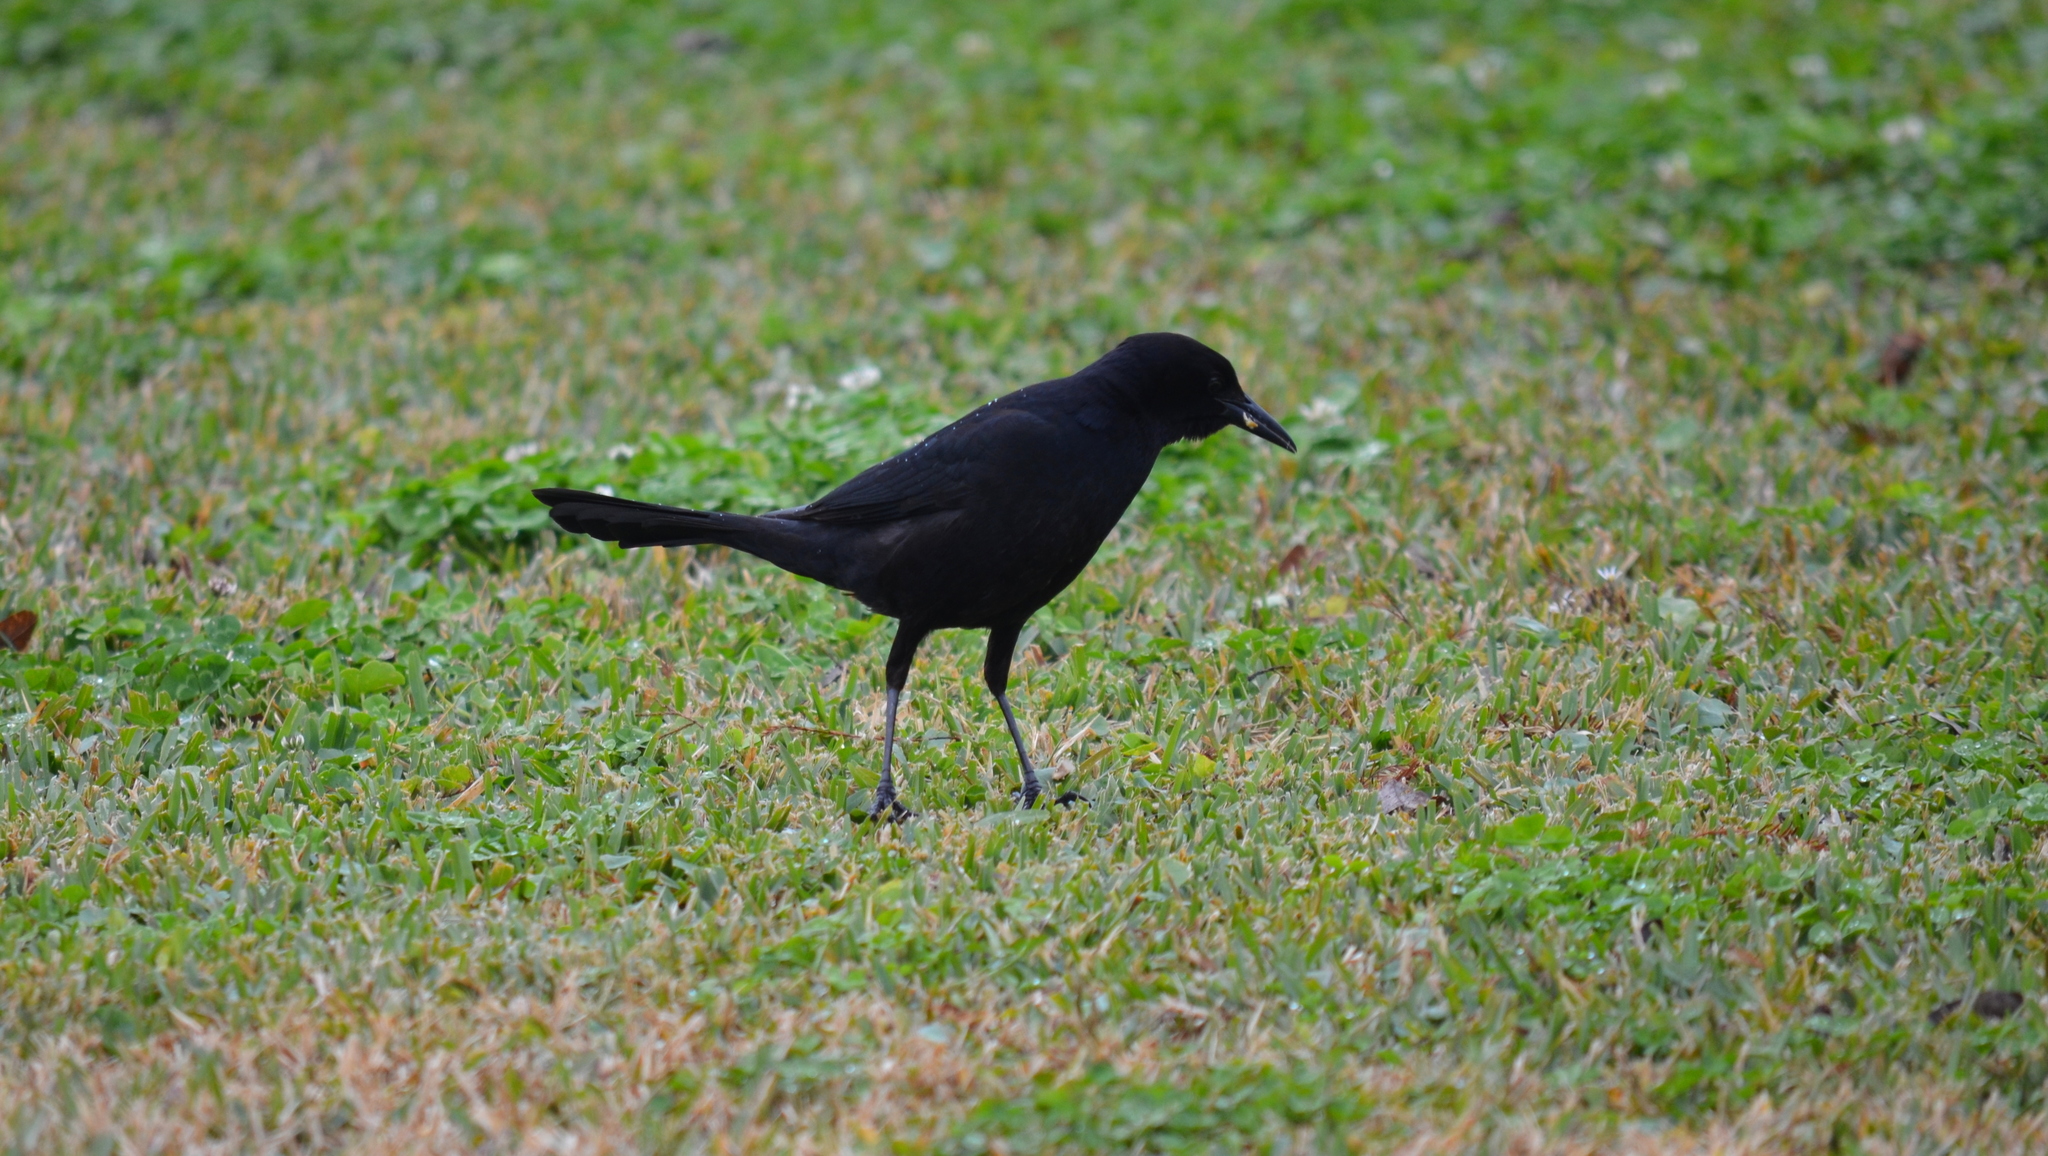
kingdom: Animalia
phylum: Chordata
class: Aves
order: Passeriformes
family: Icteridae
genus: Quiscalus
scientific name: Quiscalus major
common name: Boat-tailed grackle
